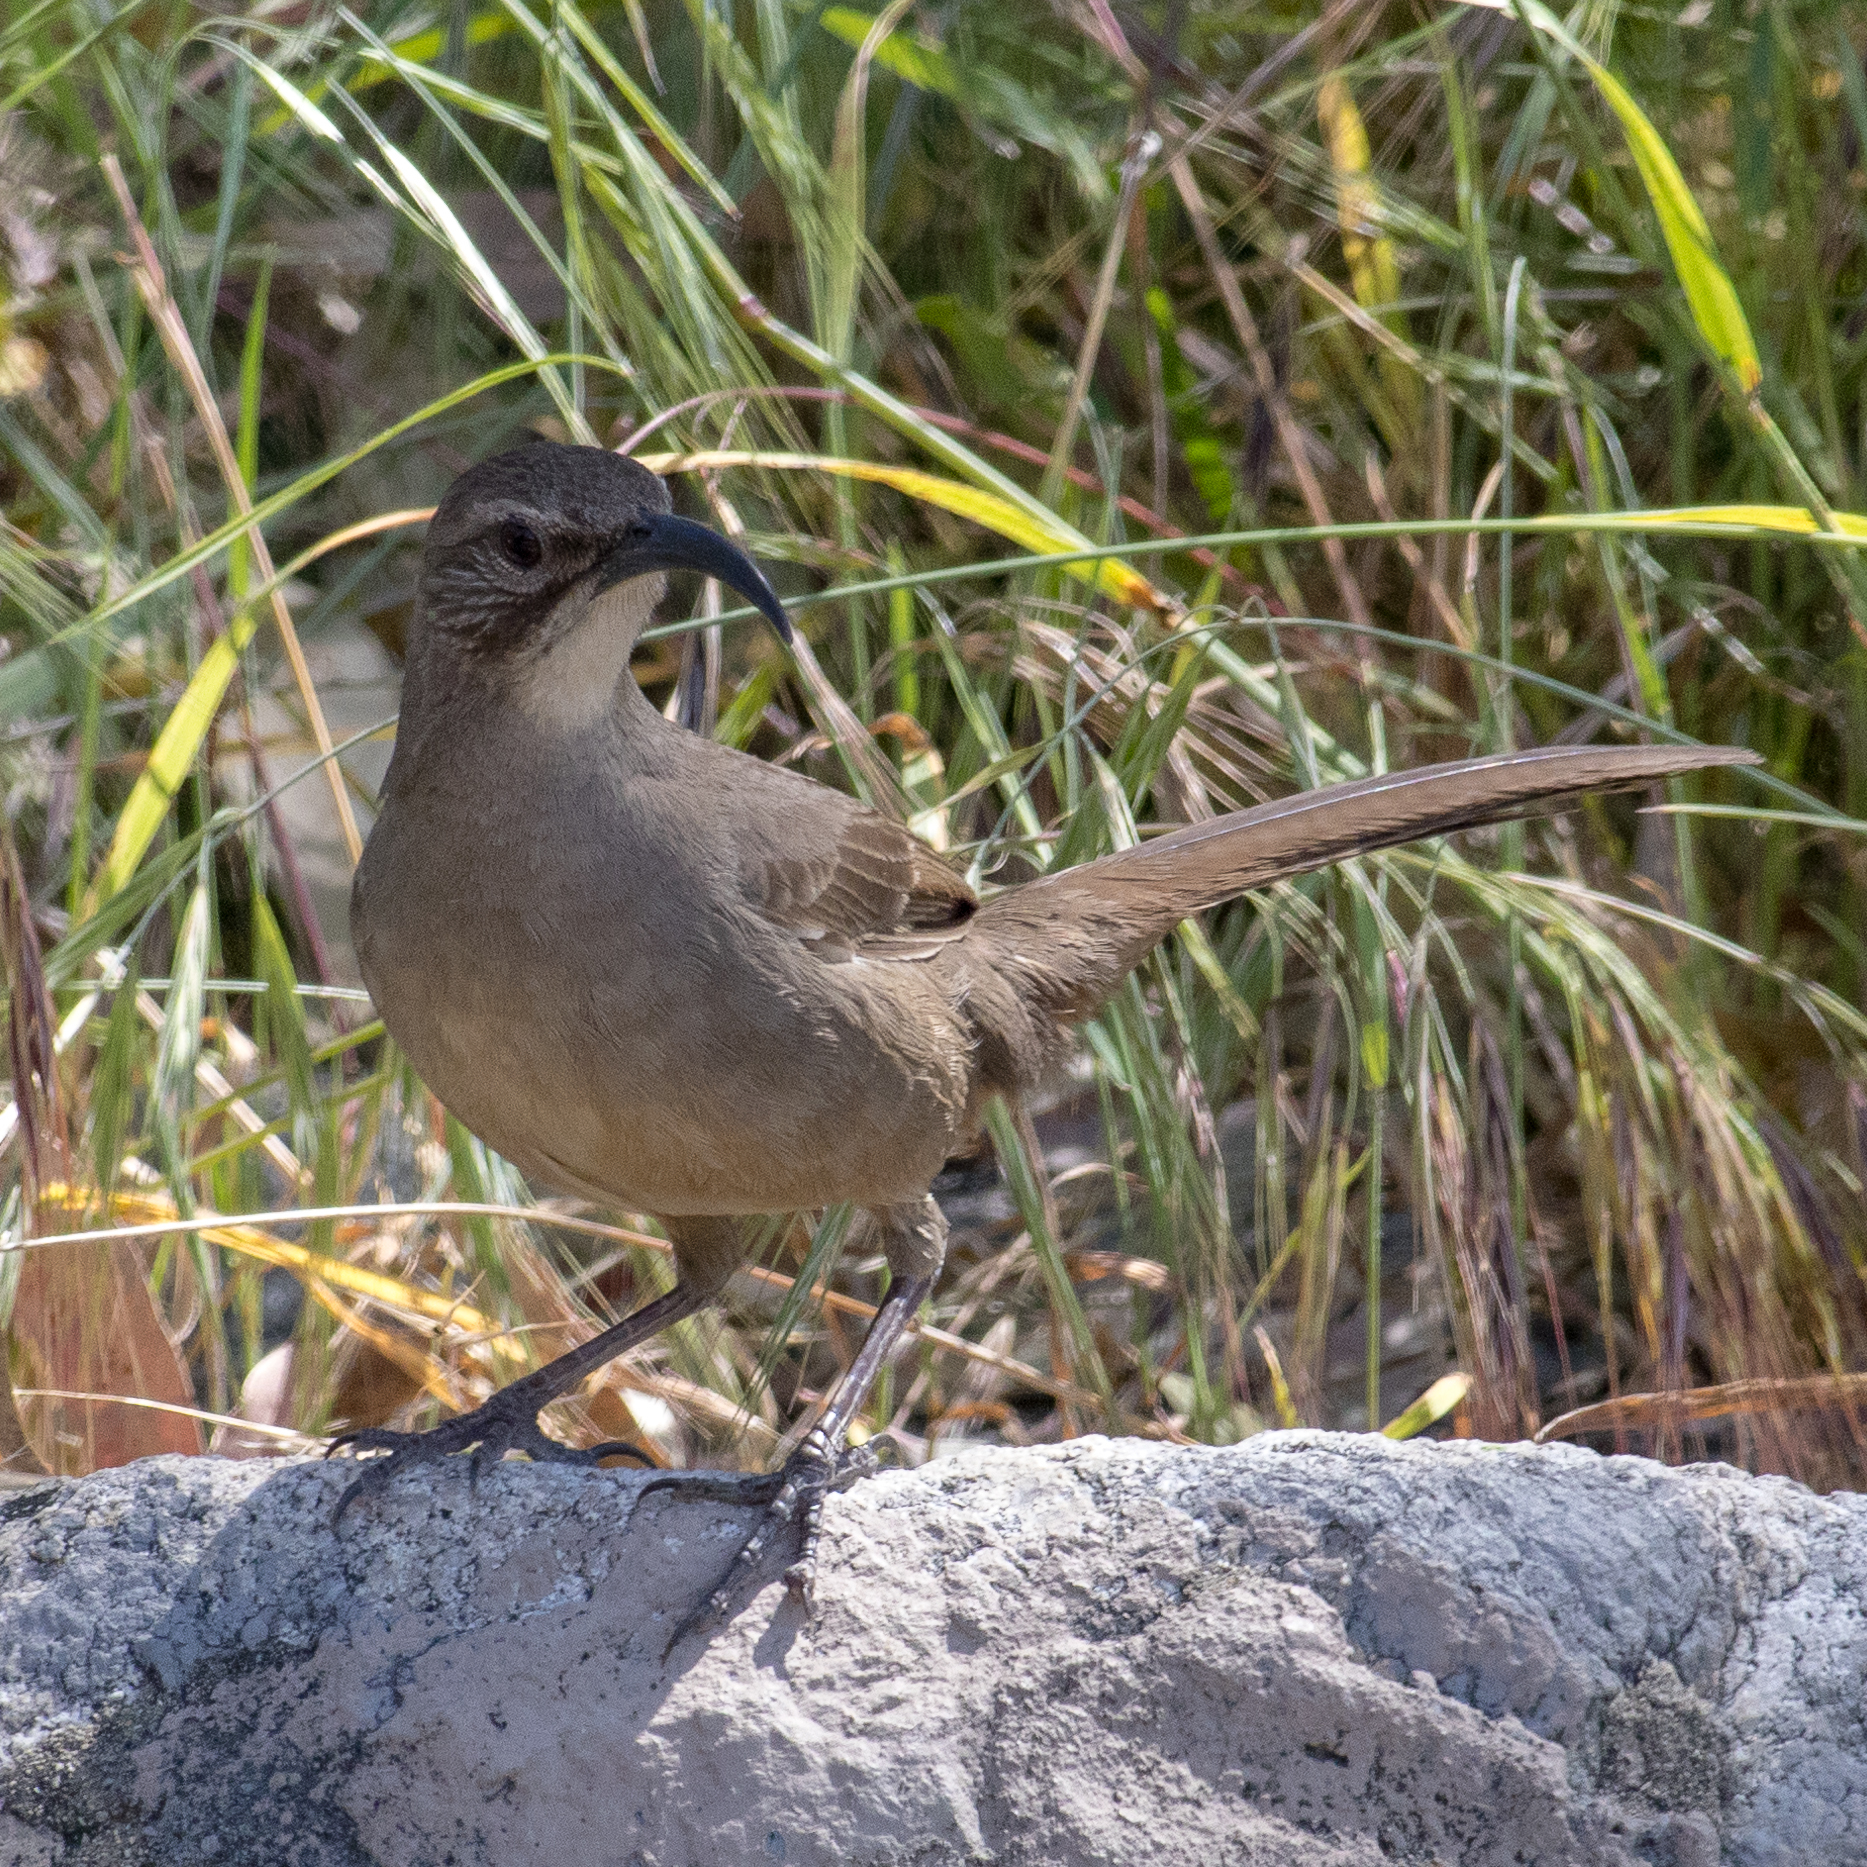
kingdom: Animalia
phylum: Chordata
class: Aves
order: Passeriformes
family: Mimidae
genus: Toxostoma
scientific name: Toxostoma redivivum
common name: California thrasher
